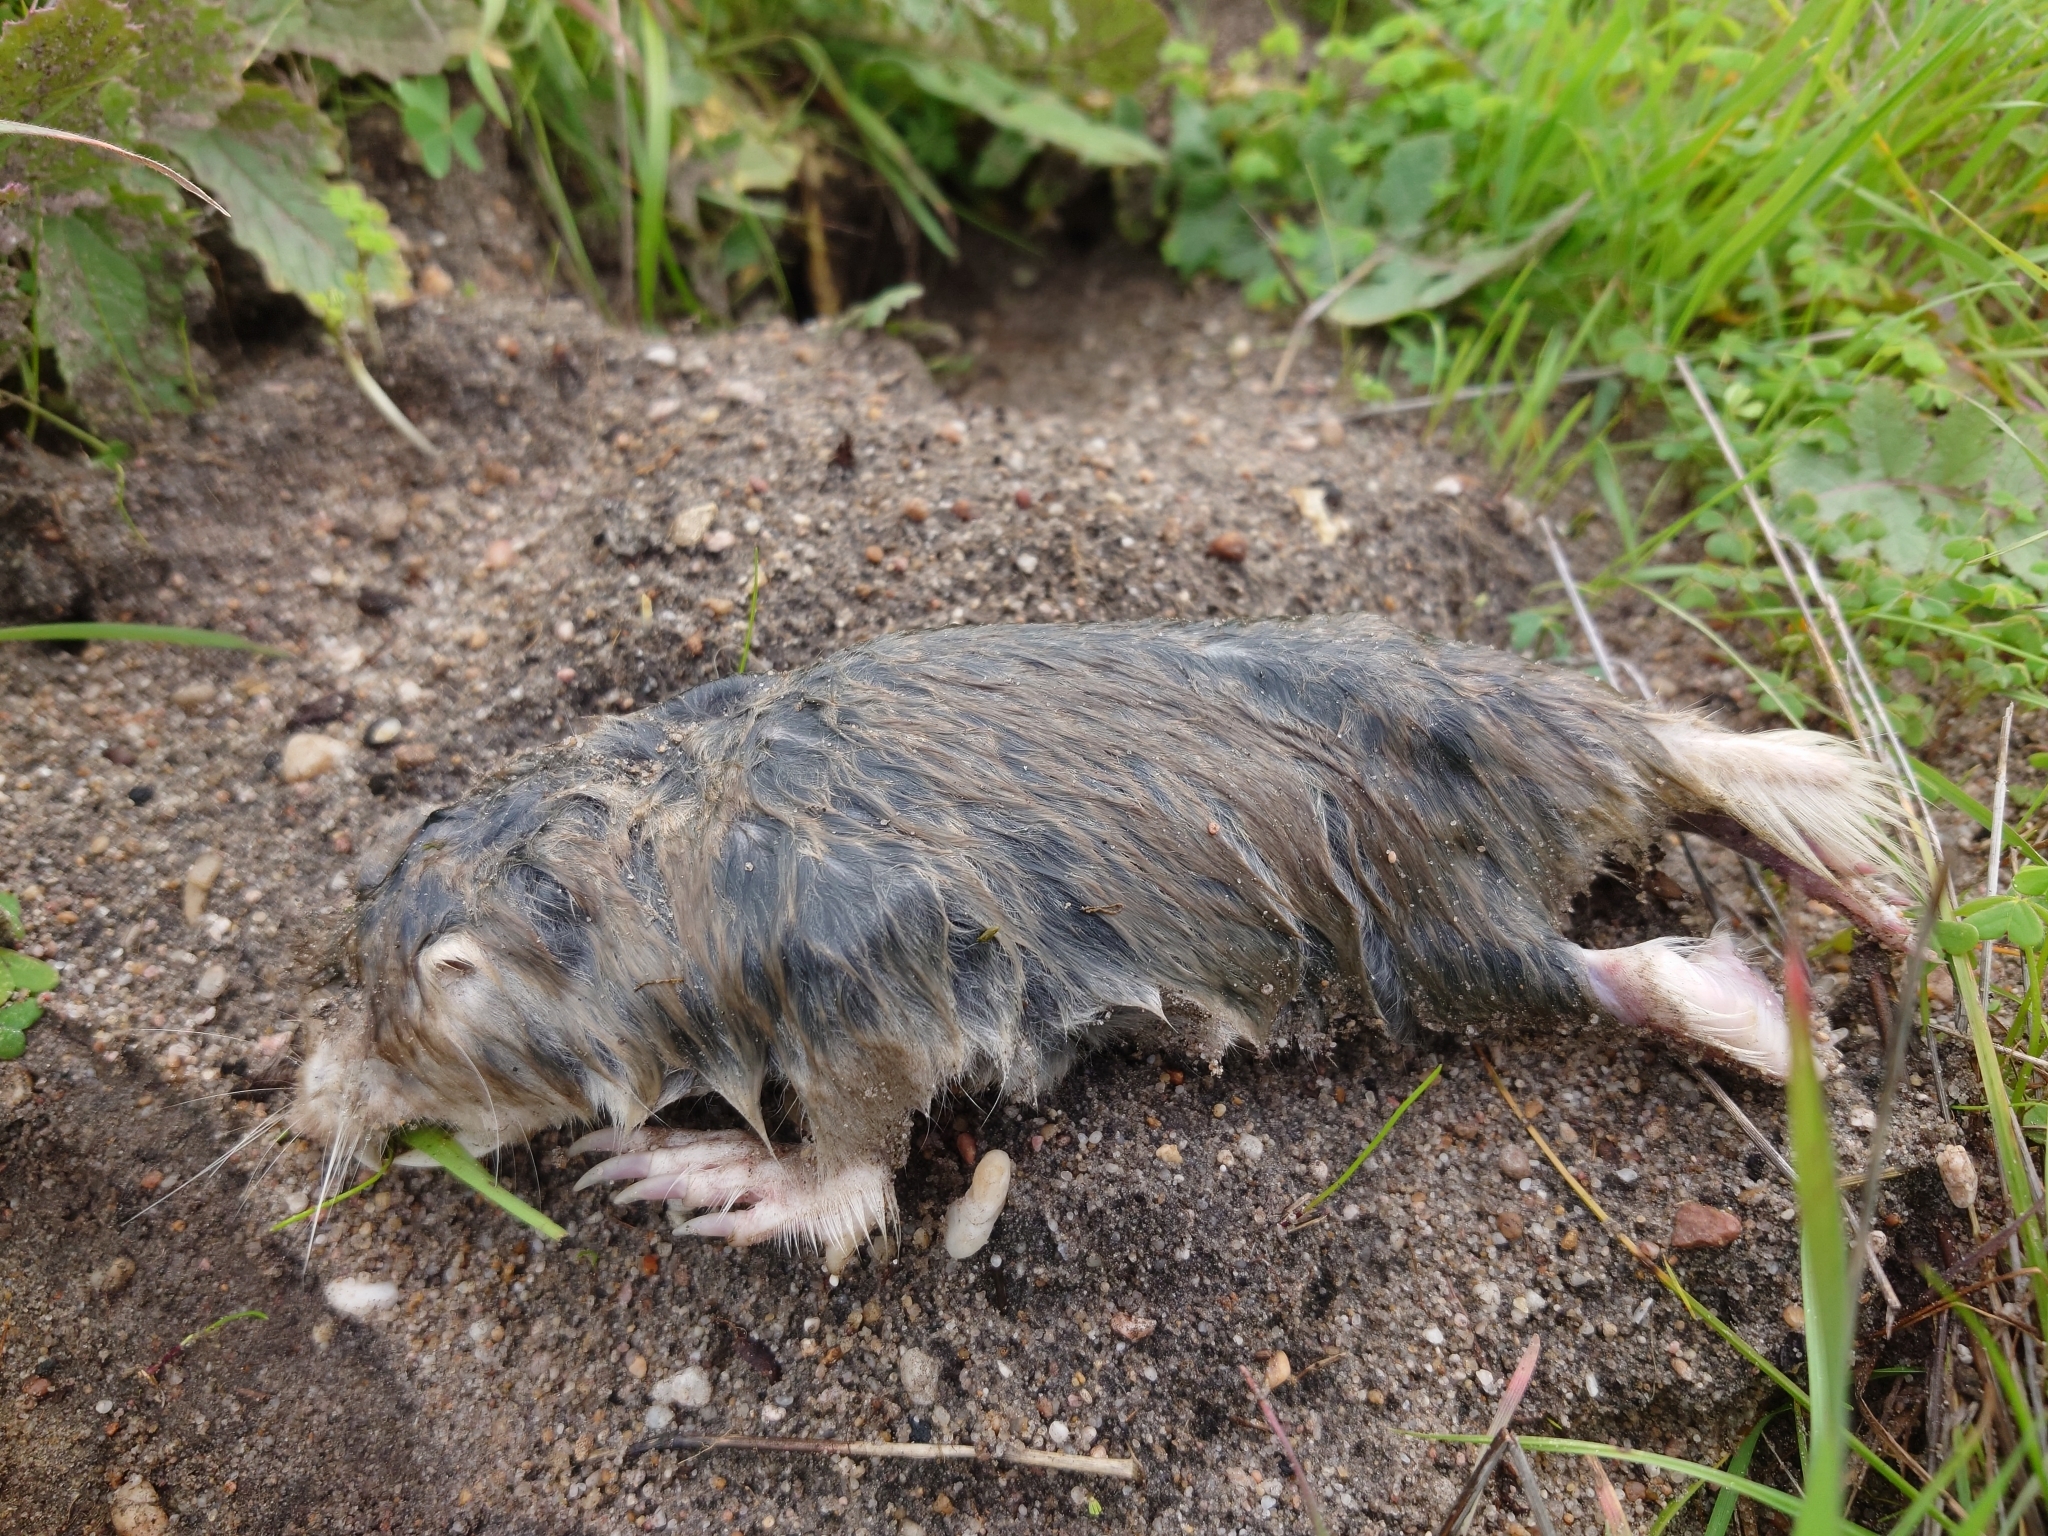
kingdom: Animalia
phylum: Chordata
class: Mammalia
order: Rodentia
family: Bathyergidae
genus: Bathyergus
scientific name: Bathyergus suillus
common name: Cape dune mole rat
